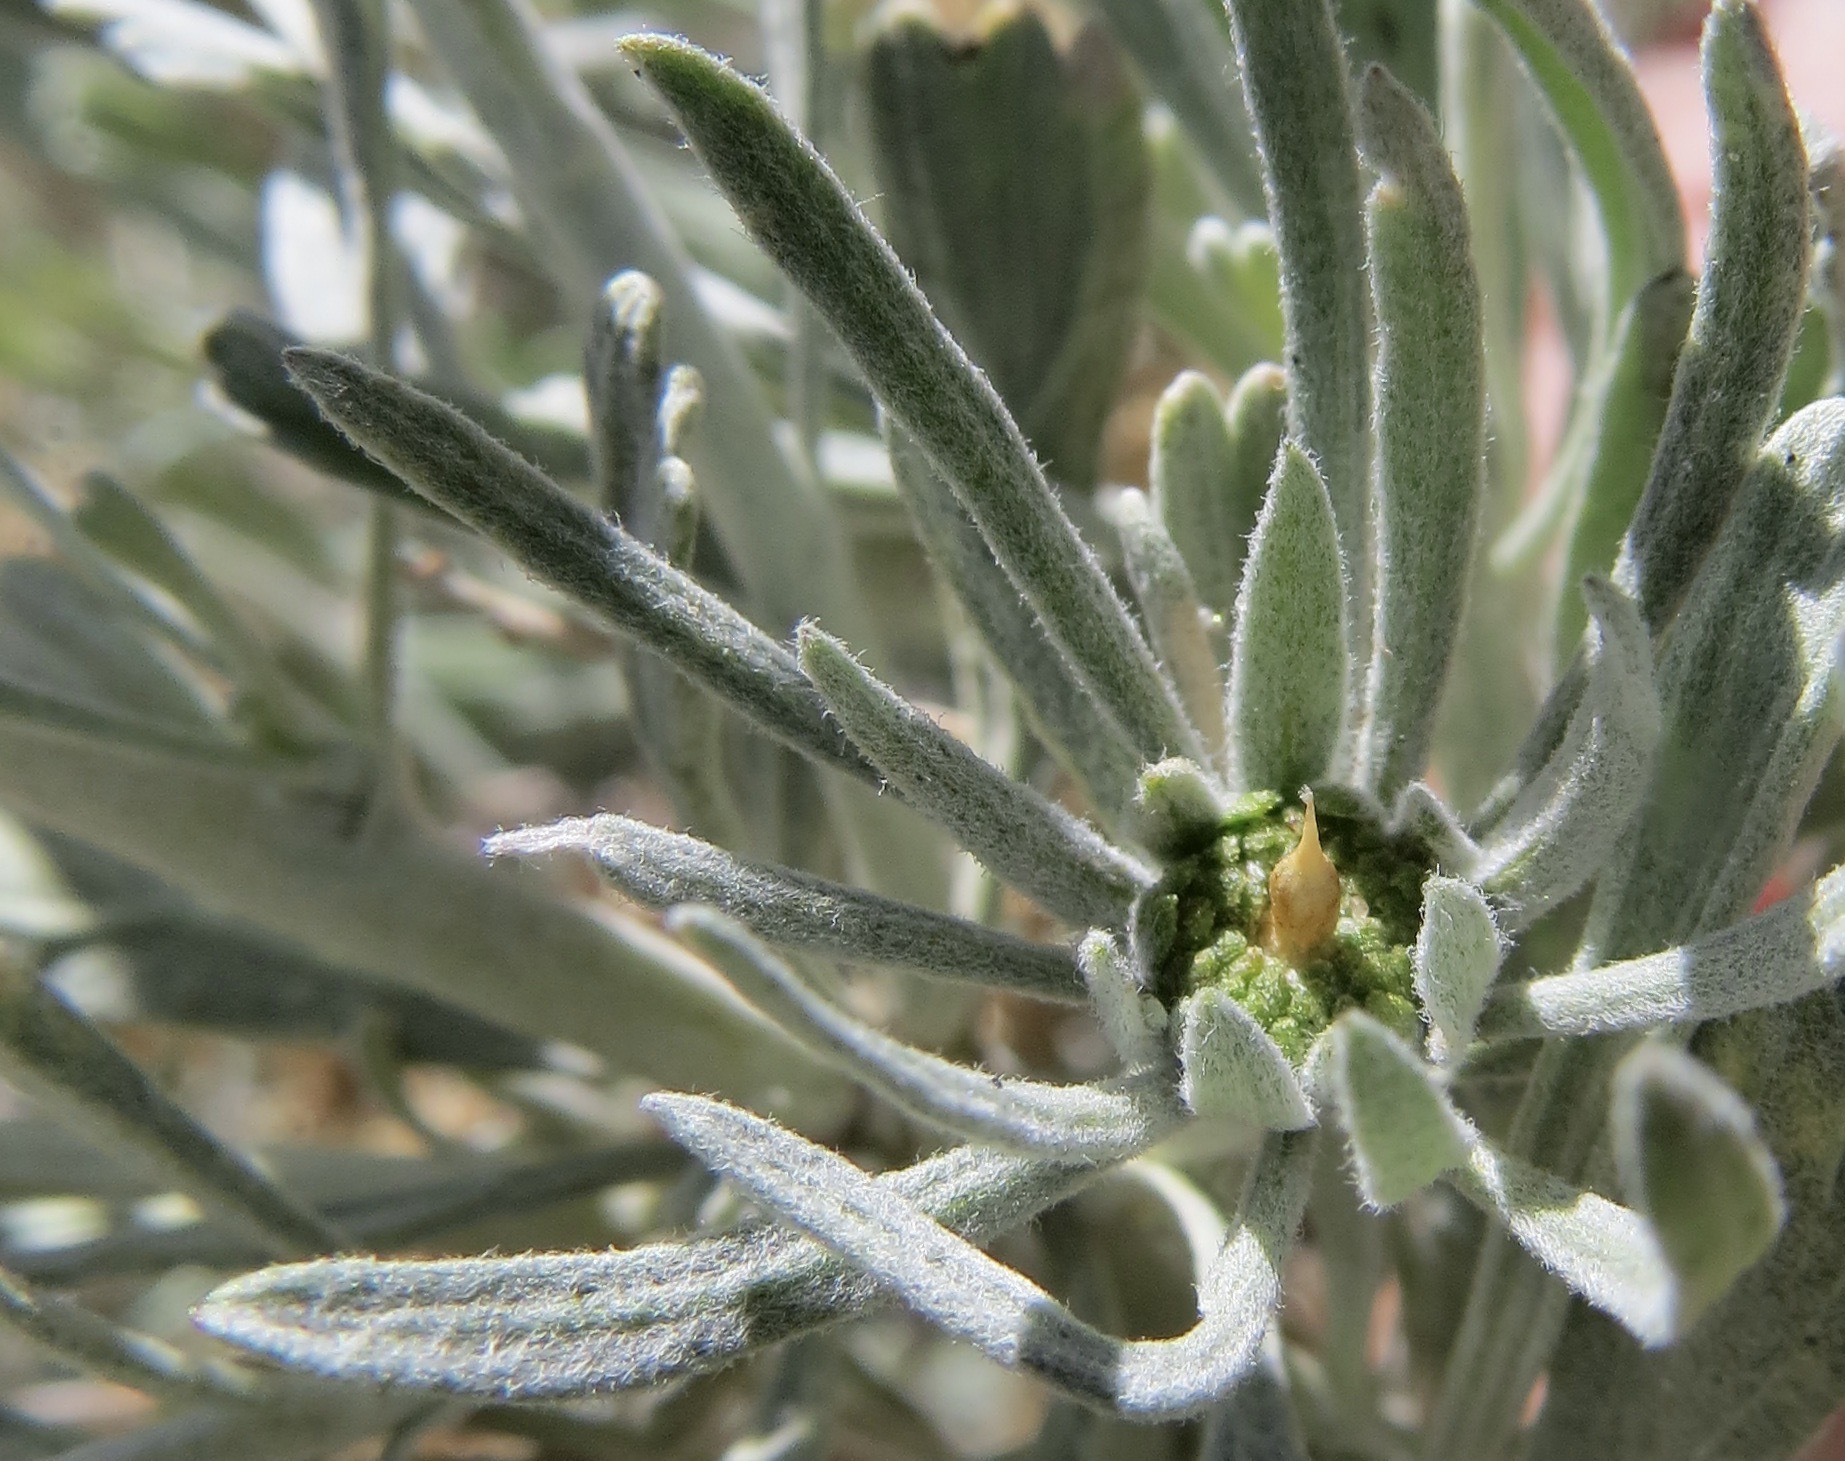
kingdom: Animalia
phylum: Arthropoda
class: Insecta
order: Diptera
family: Cecidomyiidae
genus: Rhopalomyia
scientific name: Rhopalomyia conica
